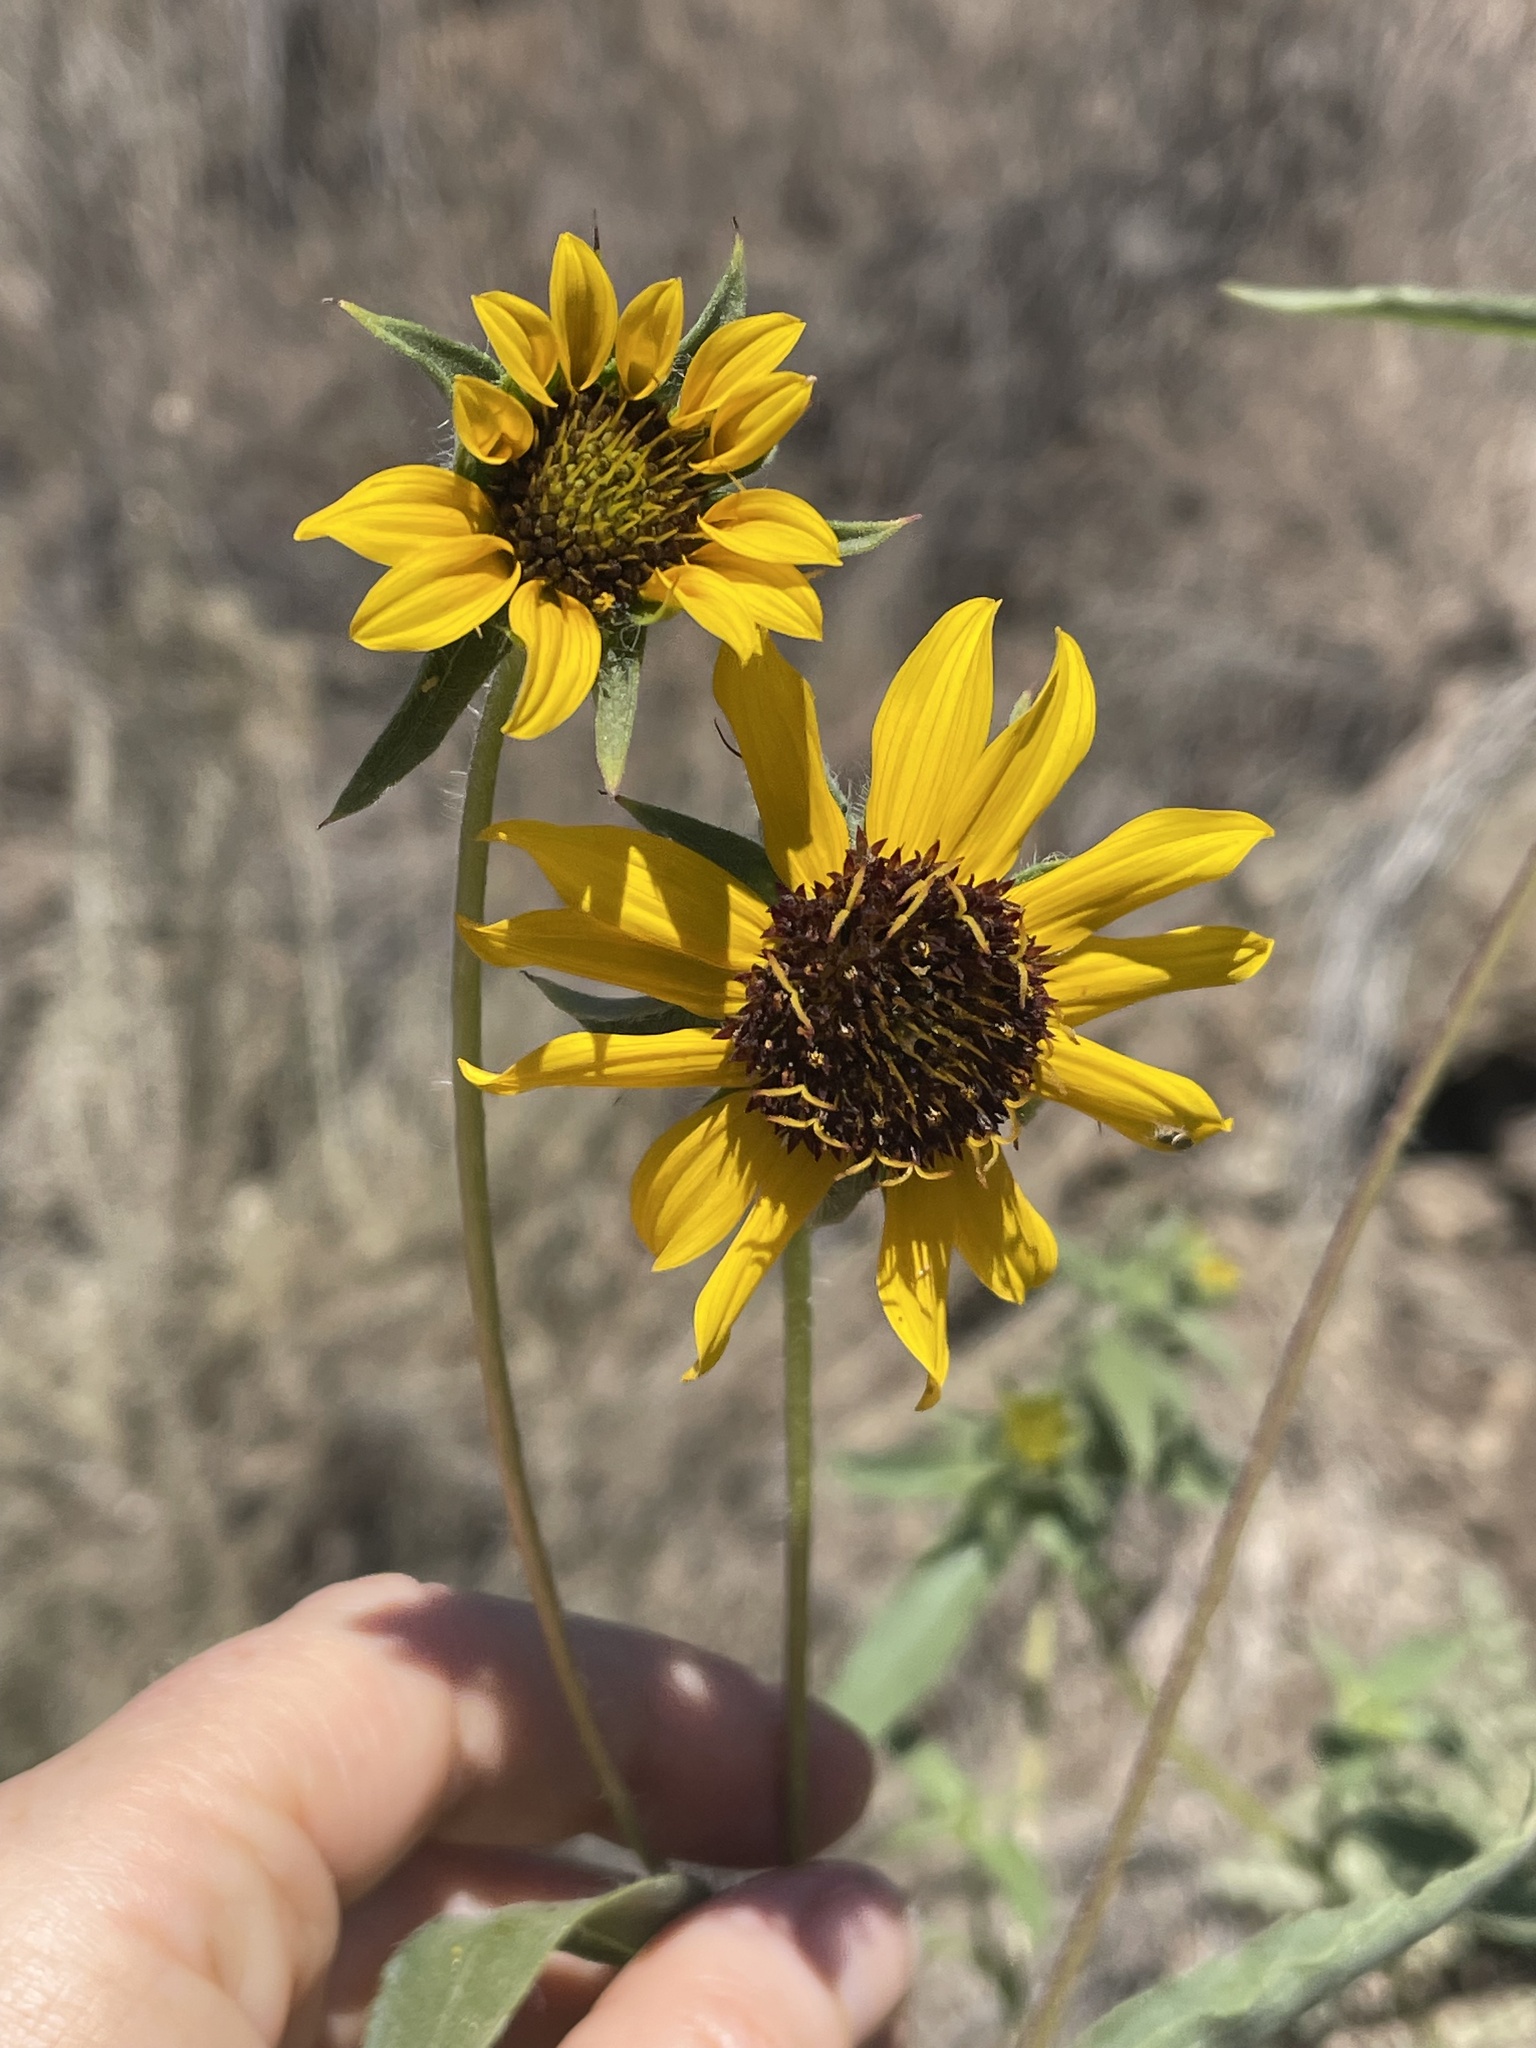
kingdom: Plantae
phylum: Tracheophyta
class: Magnoliopsida
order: Asterales
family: Asteraceae
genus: Helianthus
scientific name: Helianthus exilis
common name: Serpentine sunflower
